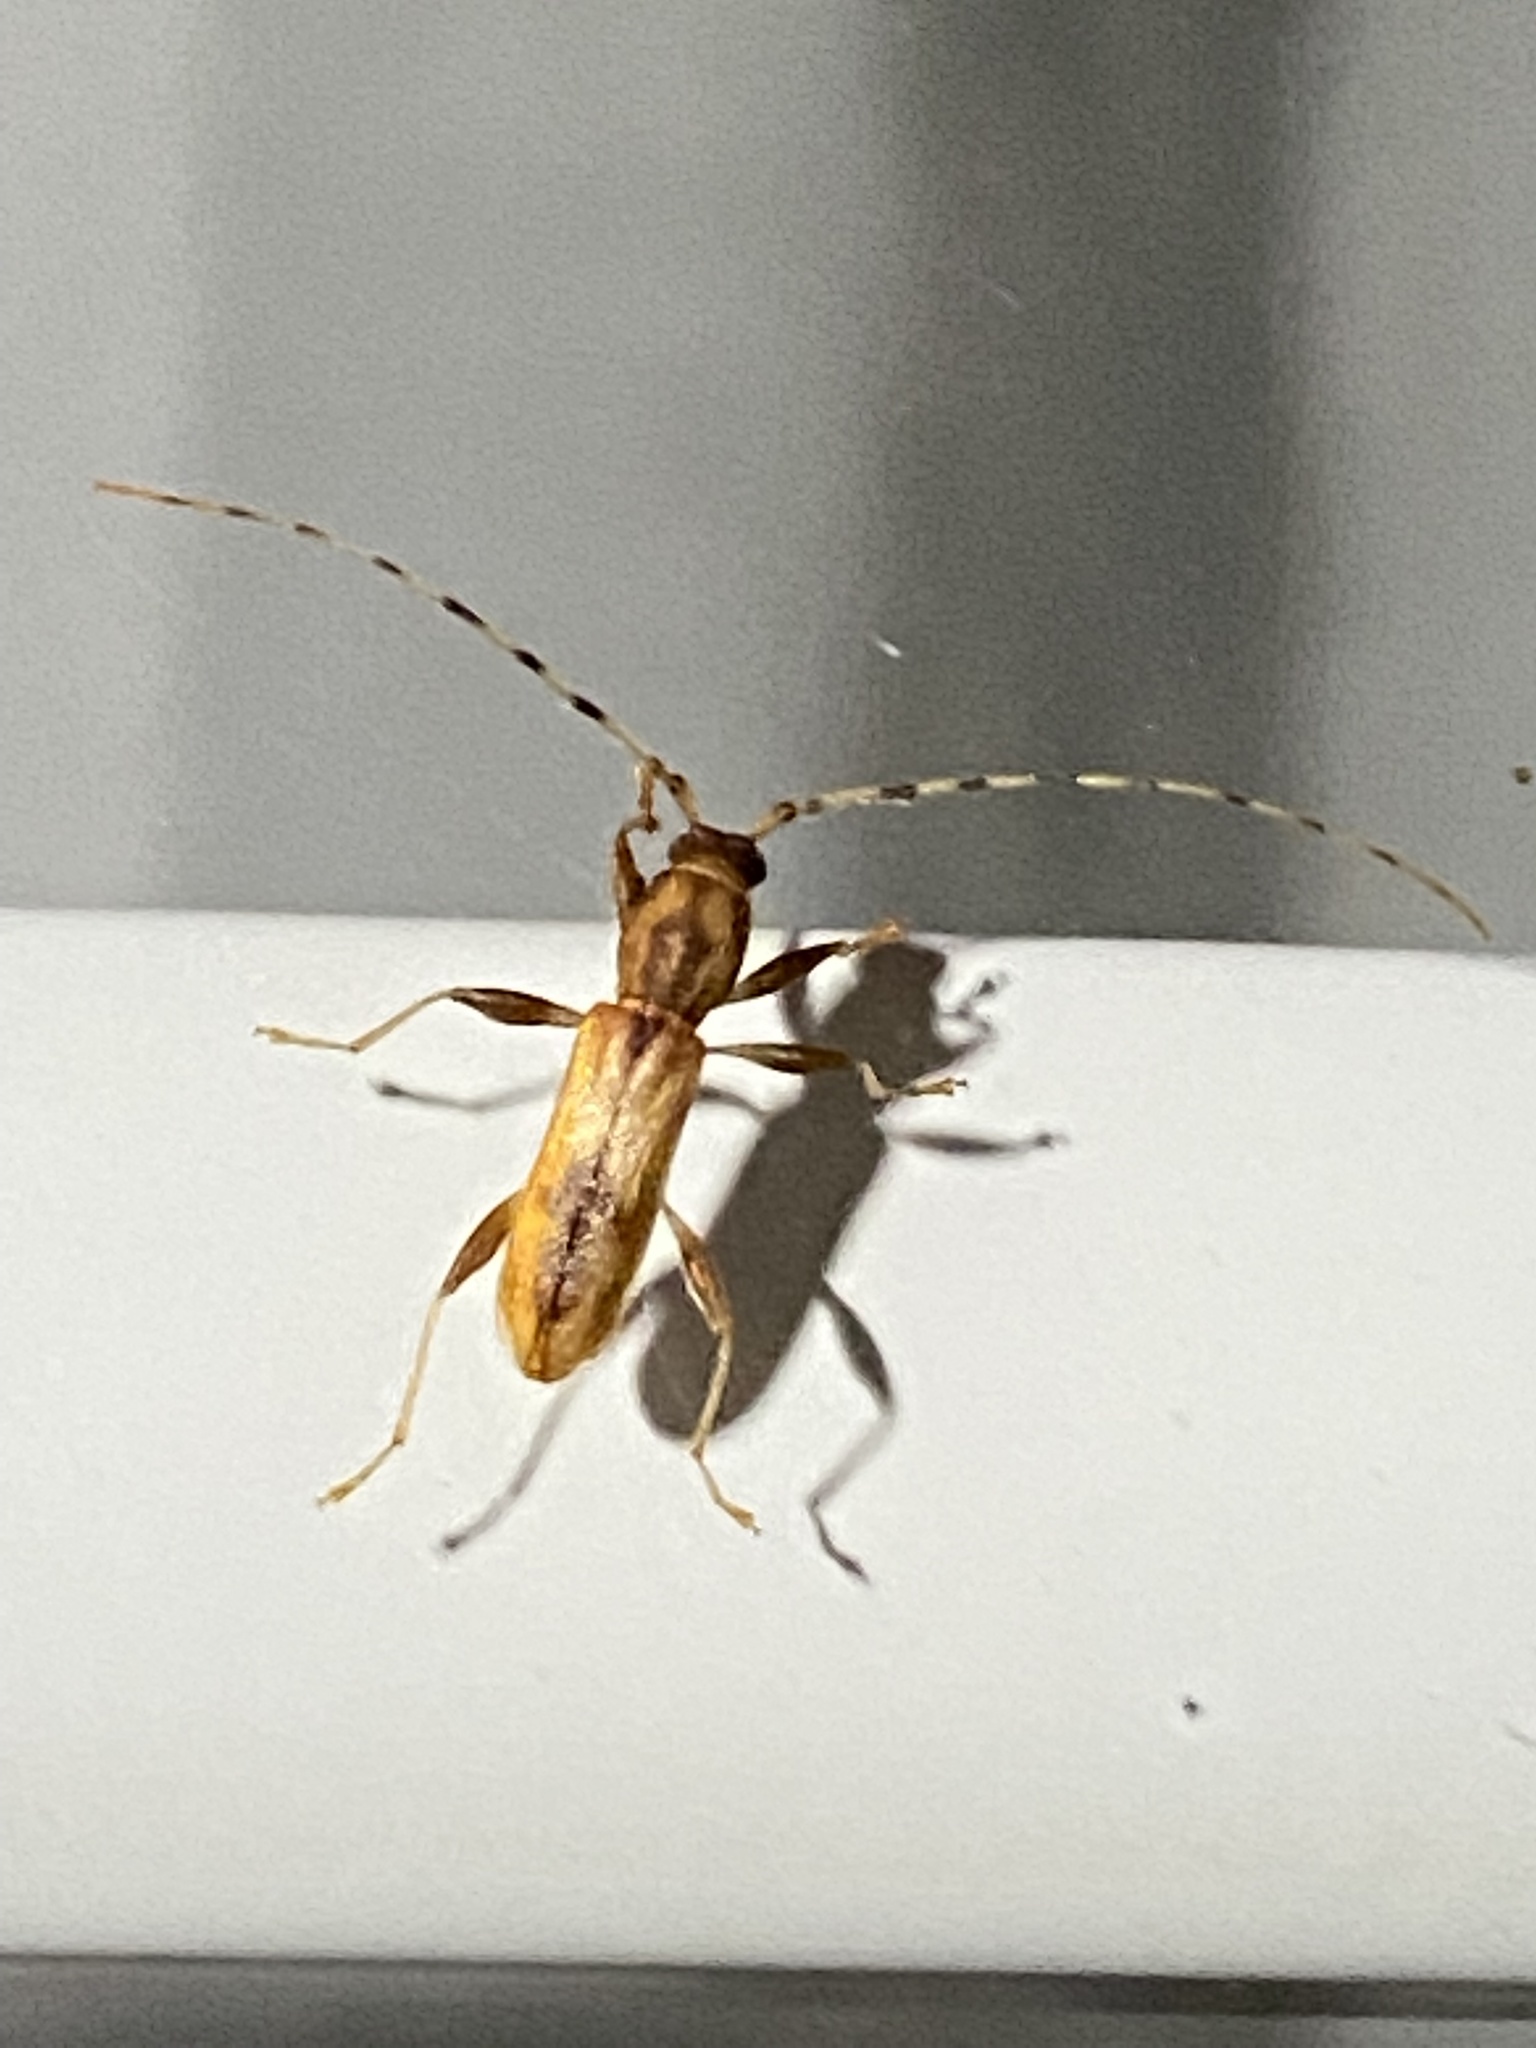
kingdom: Animalia
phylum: Arthropoda
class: Insecta
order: Coleoptera
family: Cerambycidae
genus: Curius
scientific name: Curius dentatus
